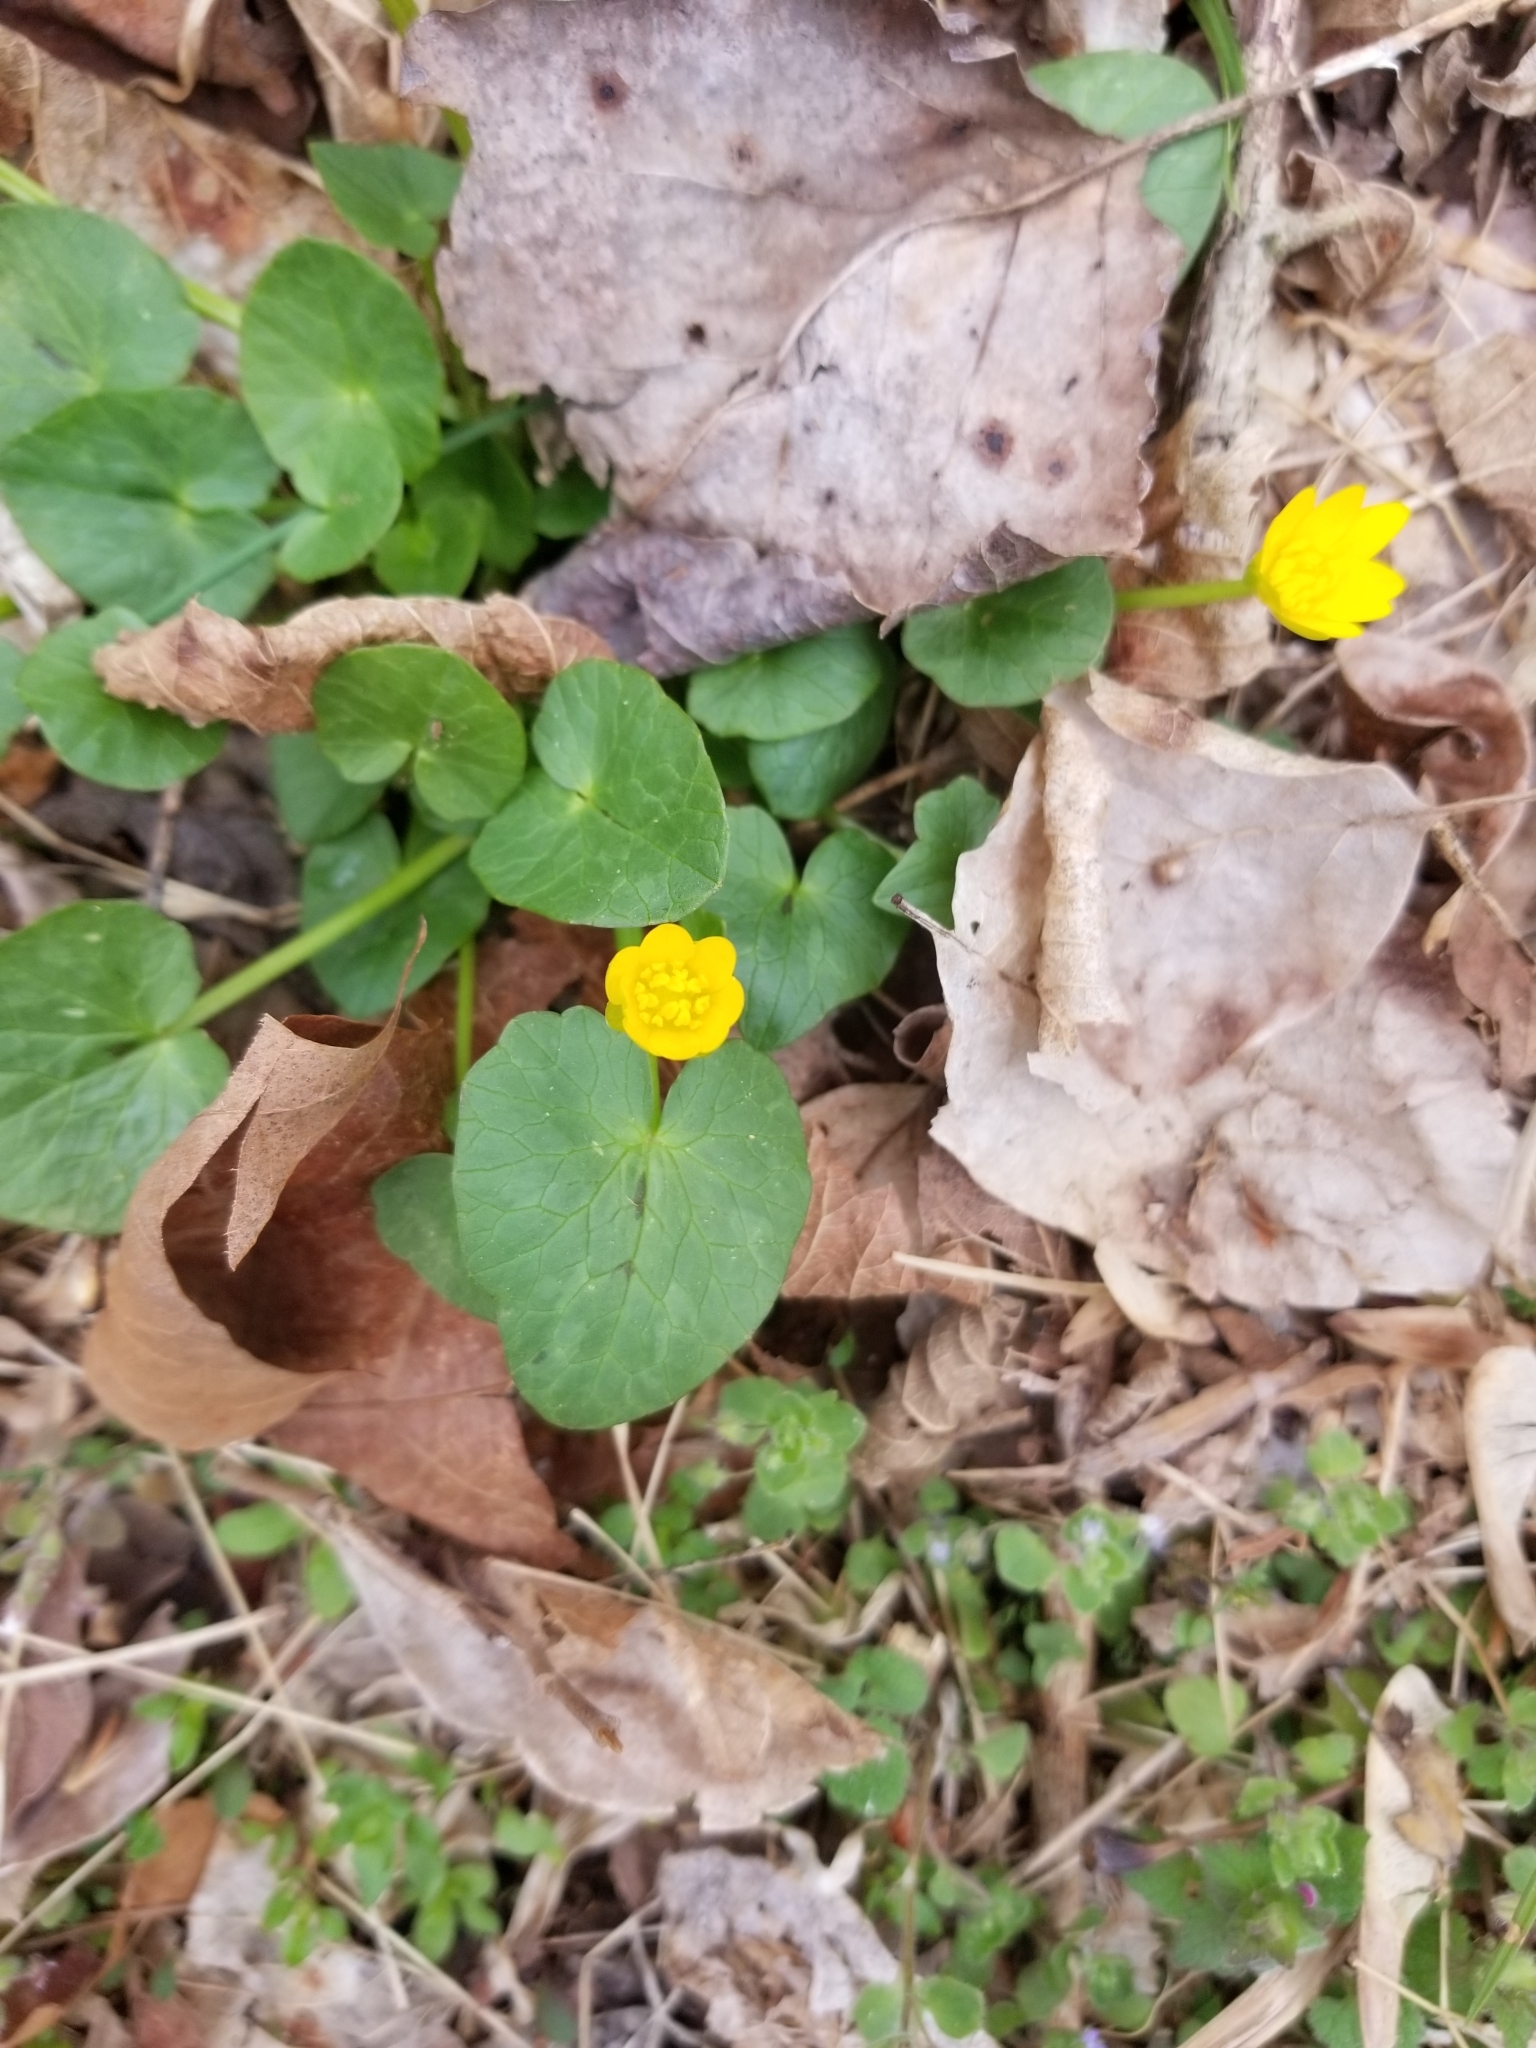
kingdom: Plantae
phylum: Tracheophyta
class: Magnoliopsida
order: Ranunculales
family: Ranunculaceae
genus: Ficaria
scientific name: Ficaria verna
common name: Lesser celandine
